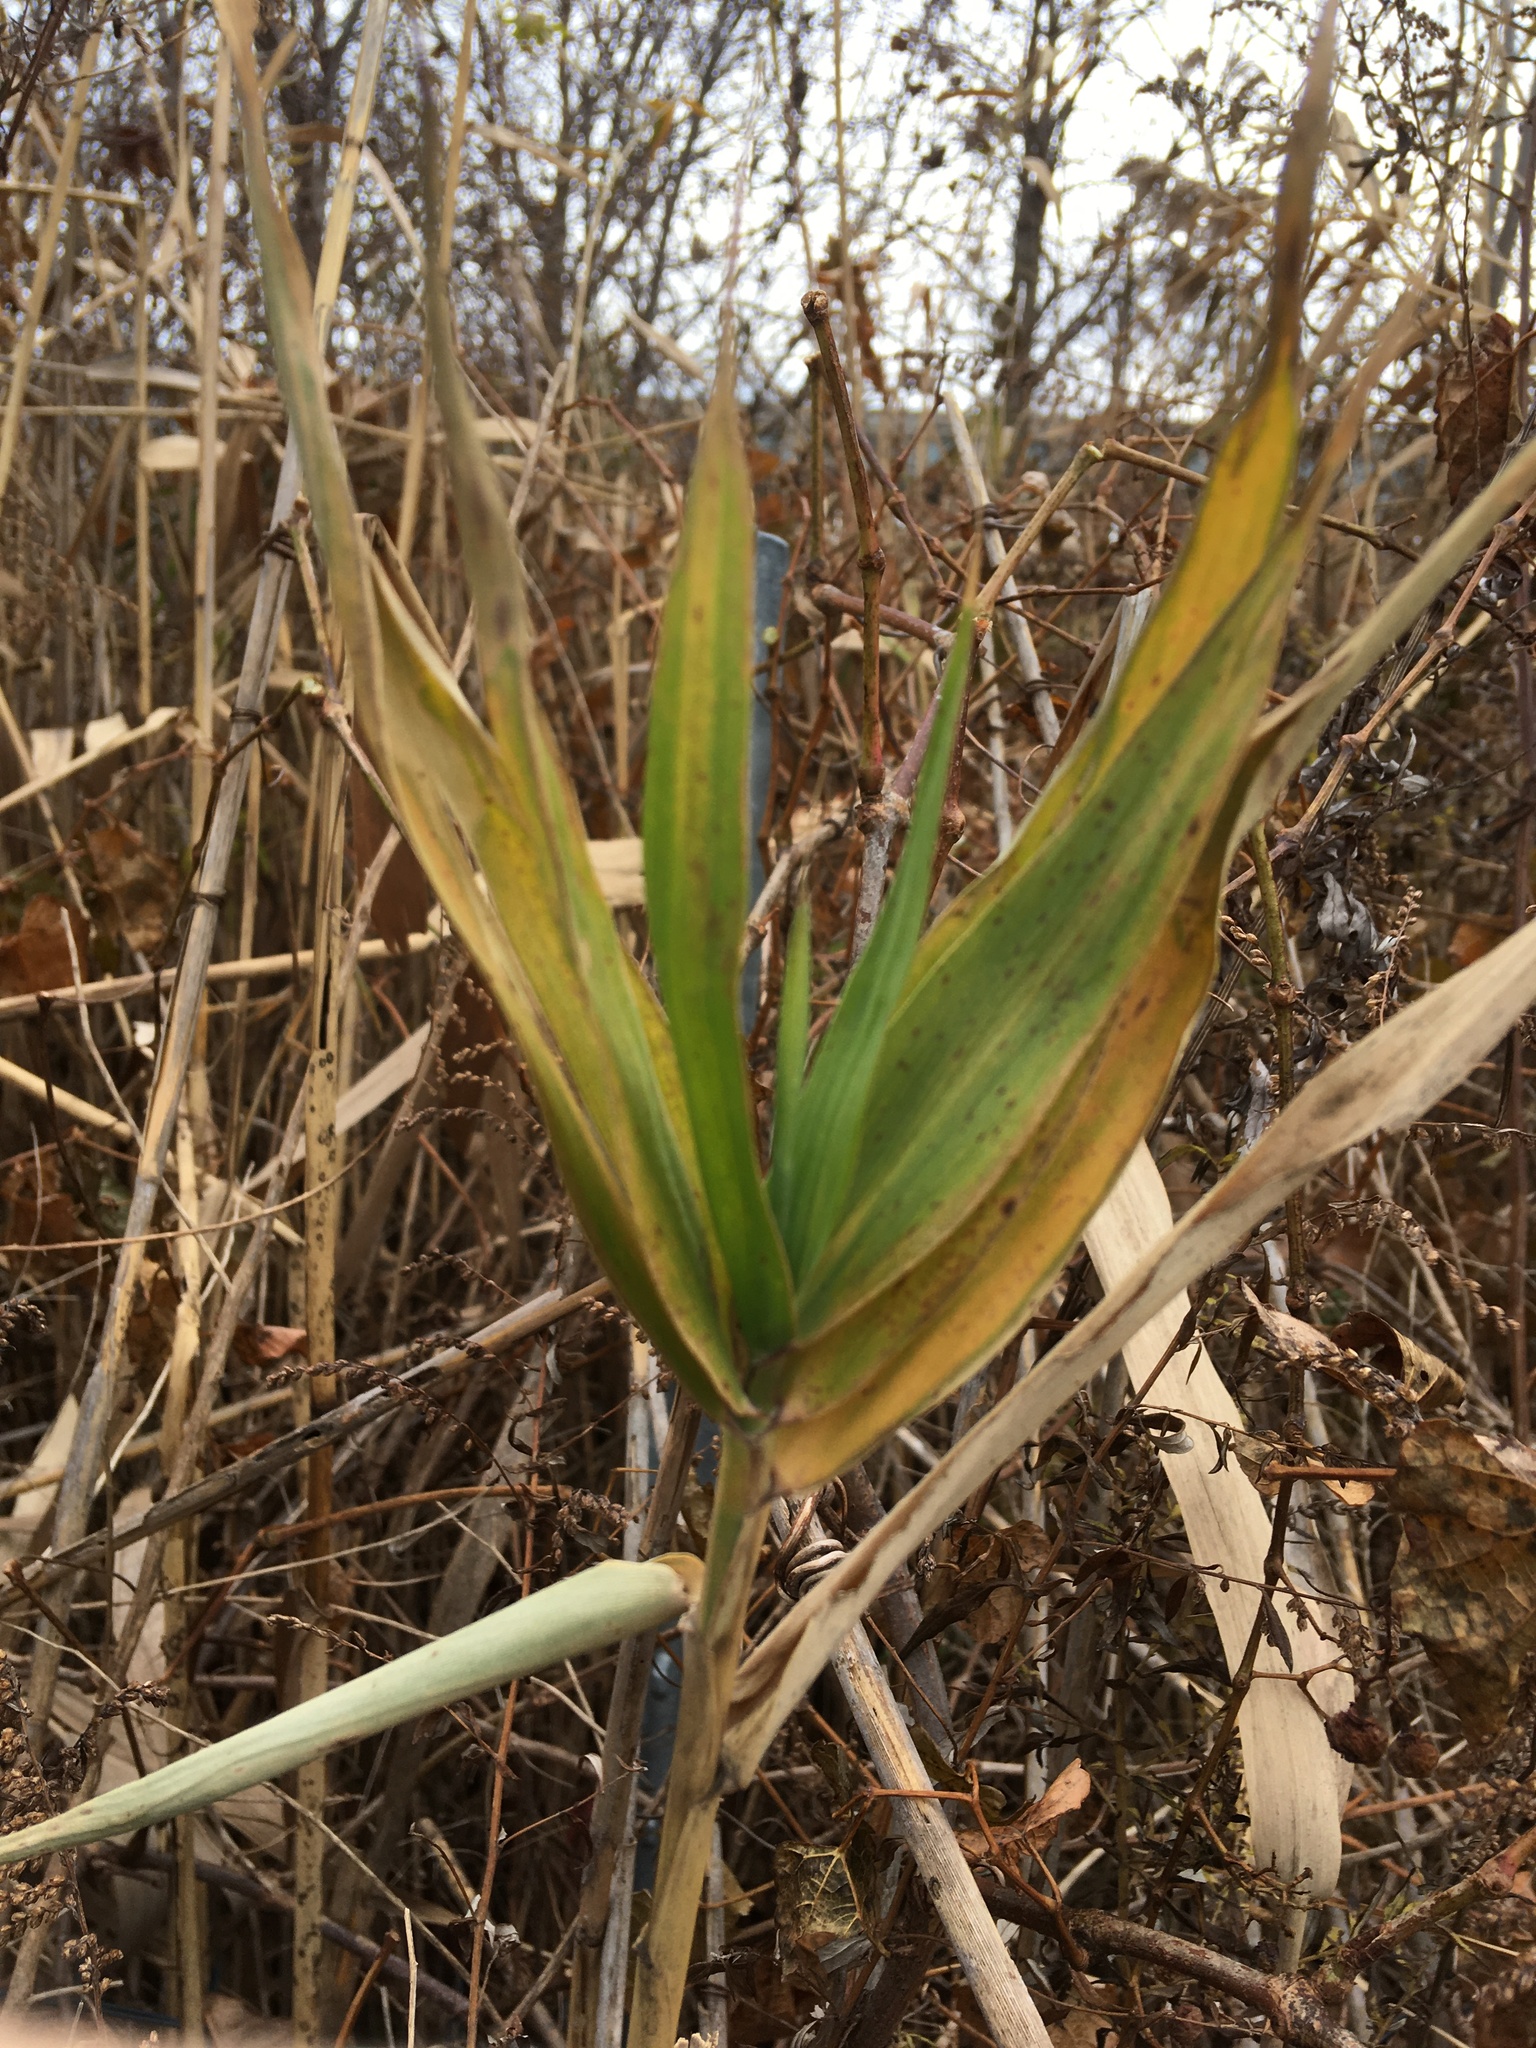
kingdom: Plantae
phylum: Tracheophyta
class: Liliopsida
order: Poales
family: Poaceae
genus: Phragmites
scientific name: Phragmites australis
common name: Common reed
